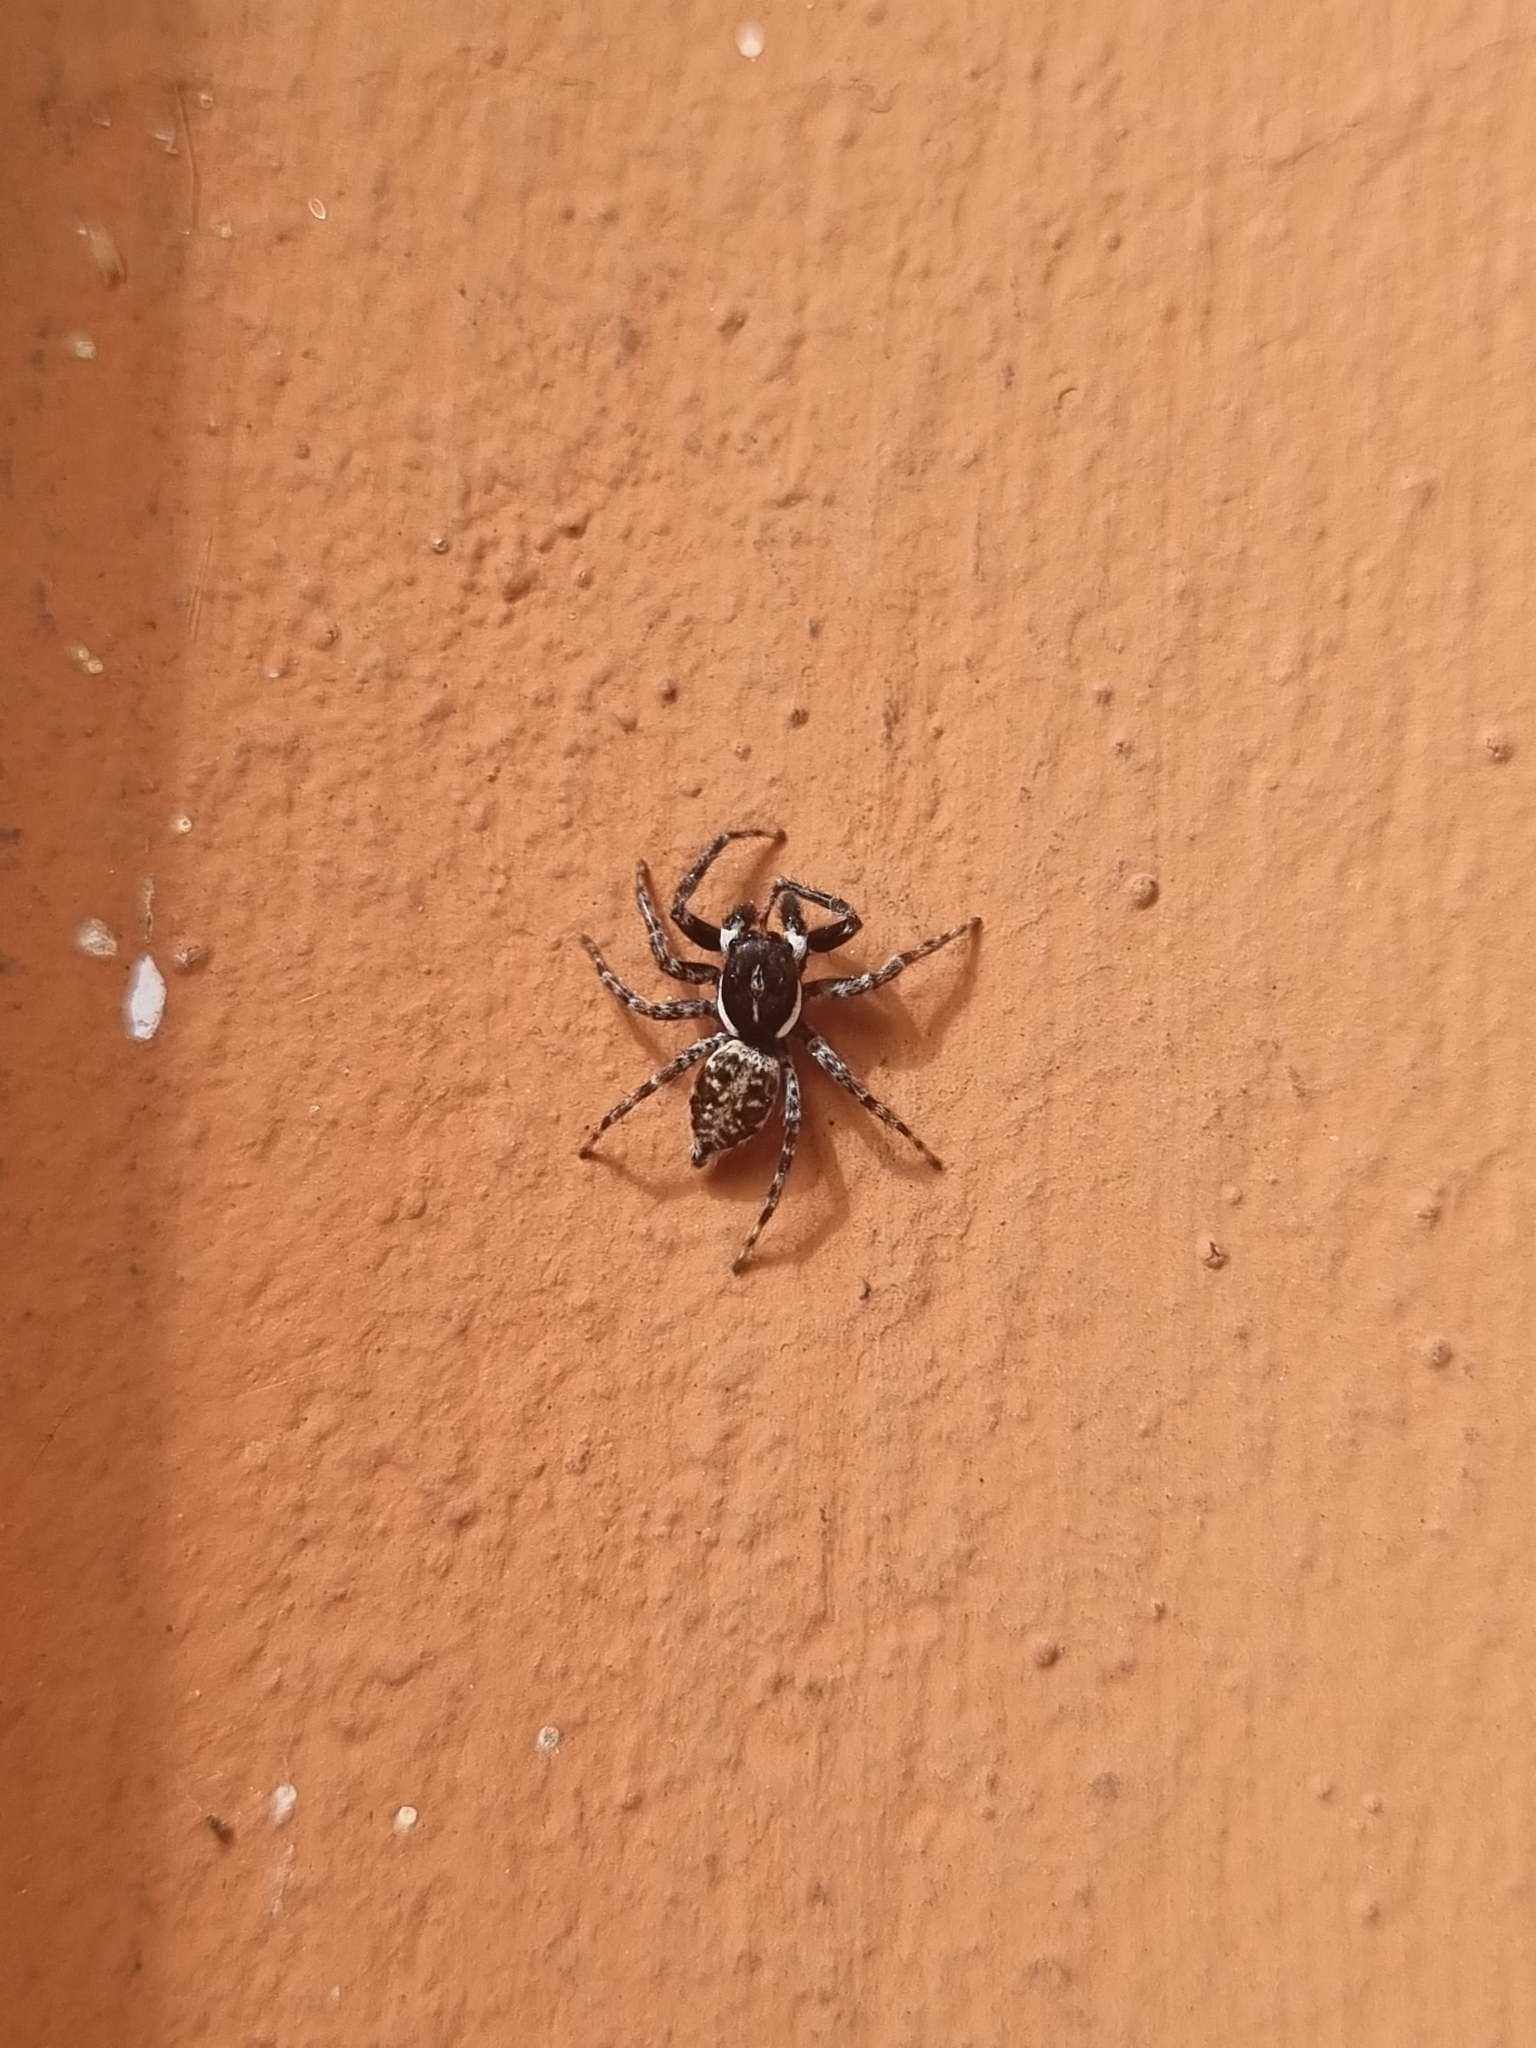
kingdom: Animalia
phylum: Arthropoda
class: Arachnida
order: Araneae
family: Salticidae
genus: Menemerus
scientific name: Menemerus semilimbatus
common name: Jumping spider
